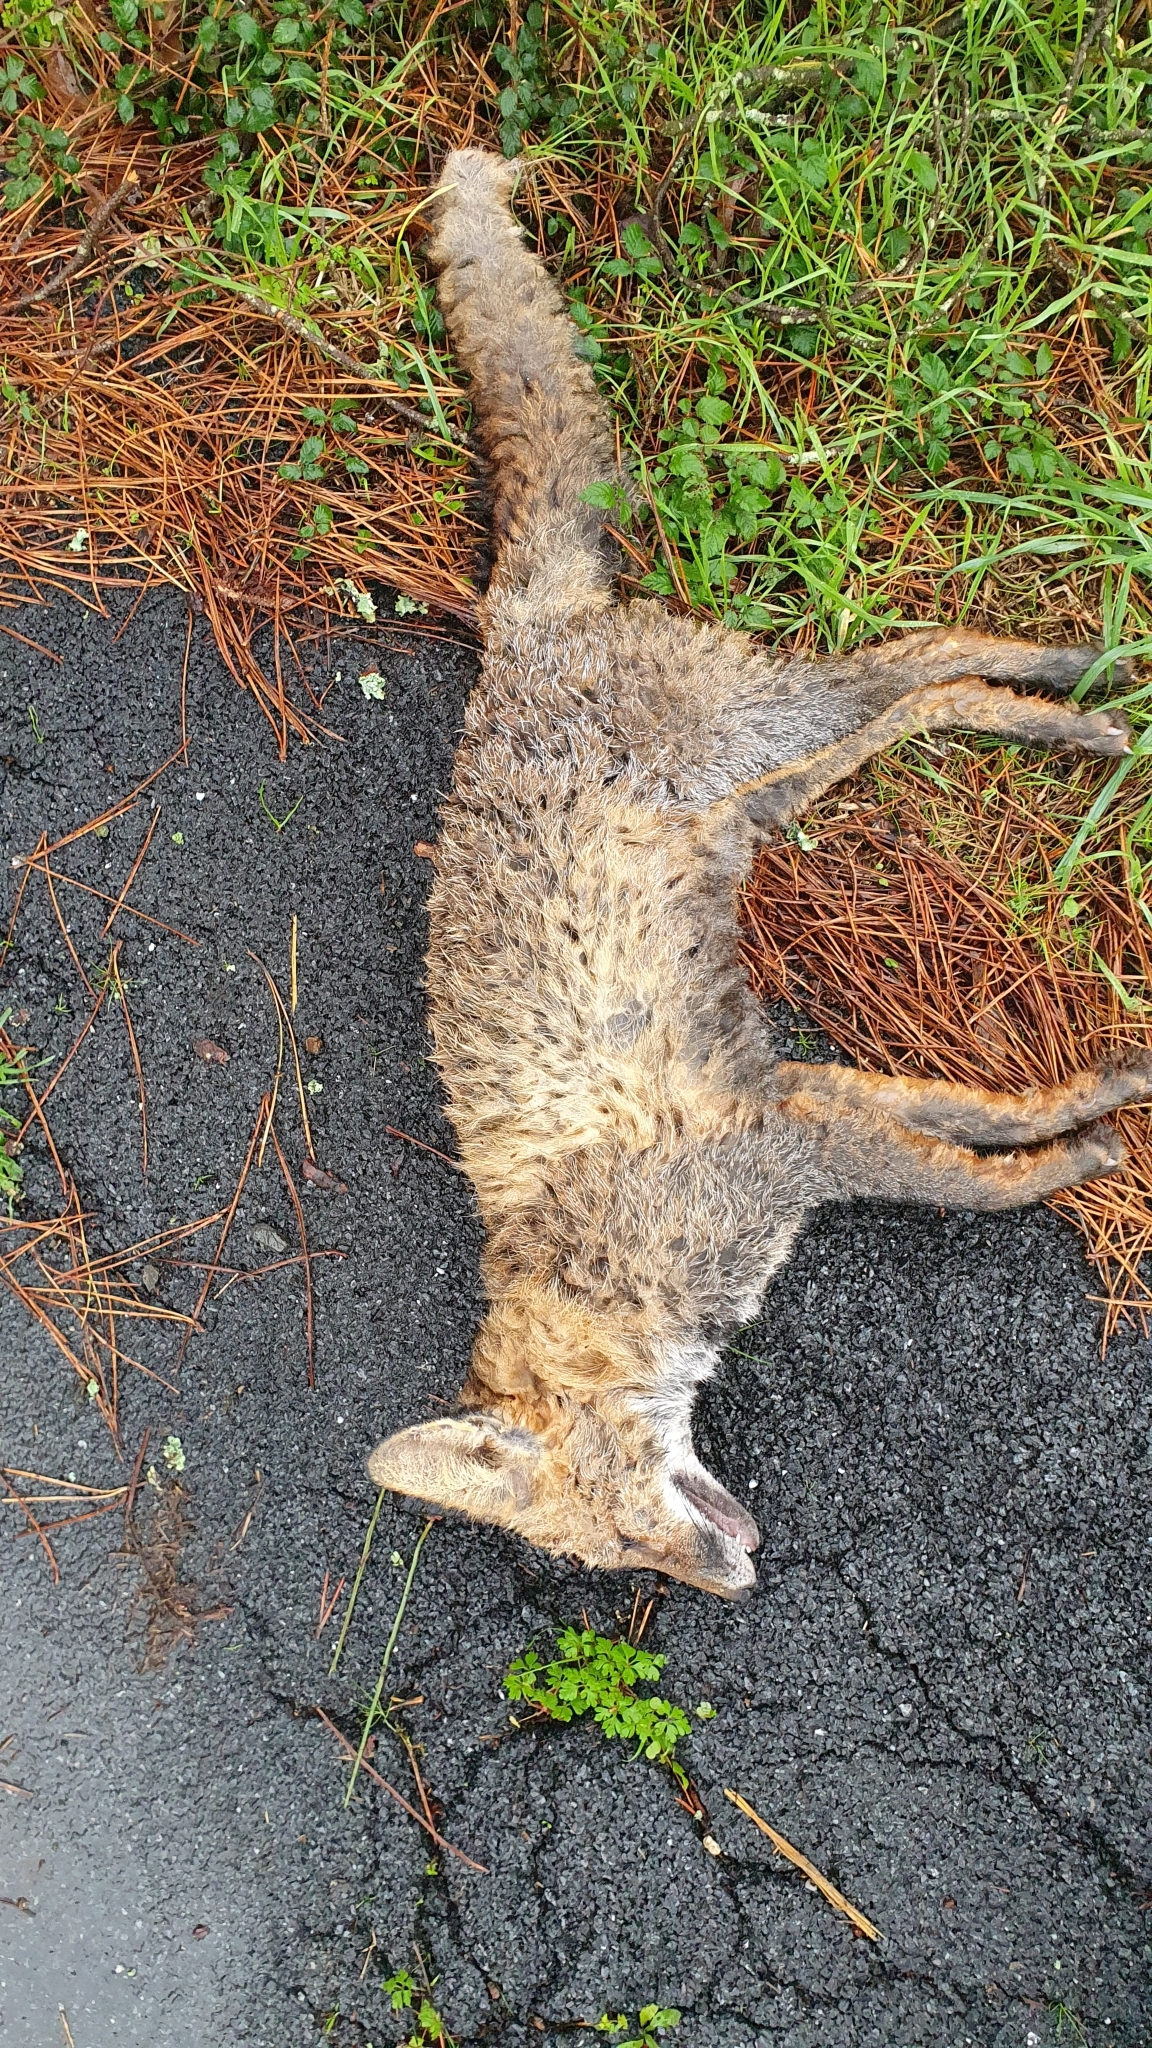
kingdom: Animalia
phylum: Chordata
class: Mammalia
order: Carnivora
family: Canidae
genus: Vulpes
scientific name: Vulpes vulpes
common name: Red fox
